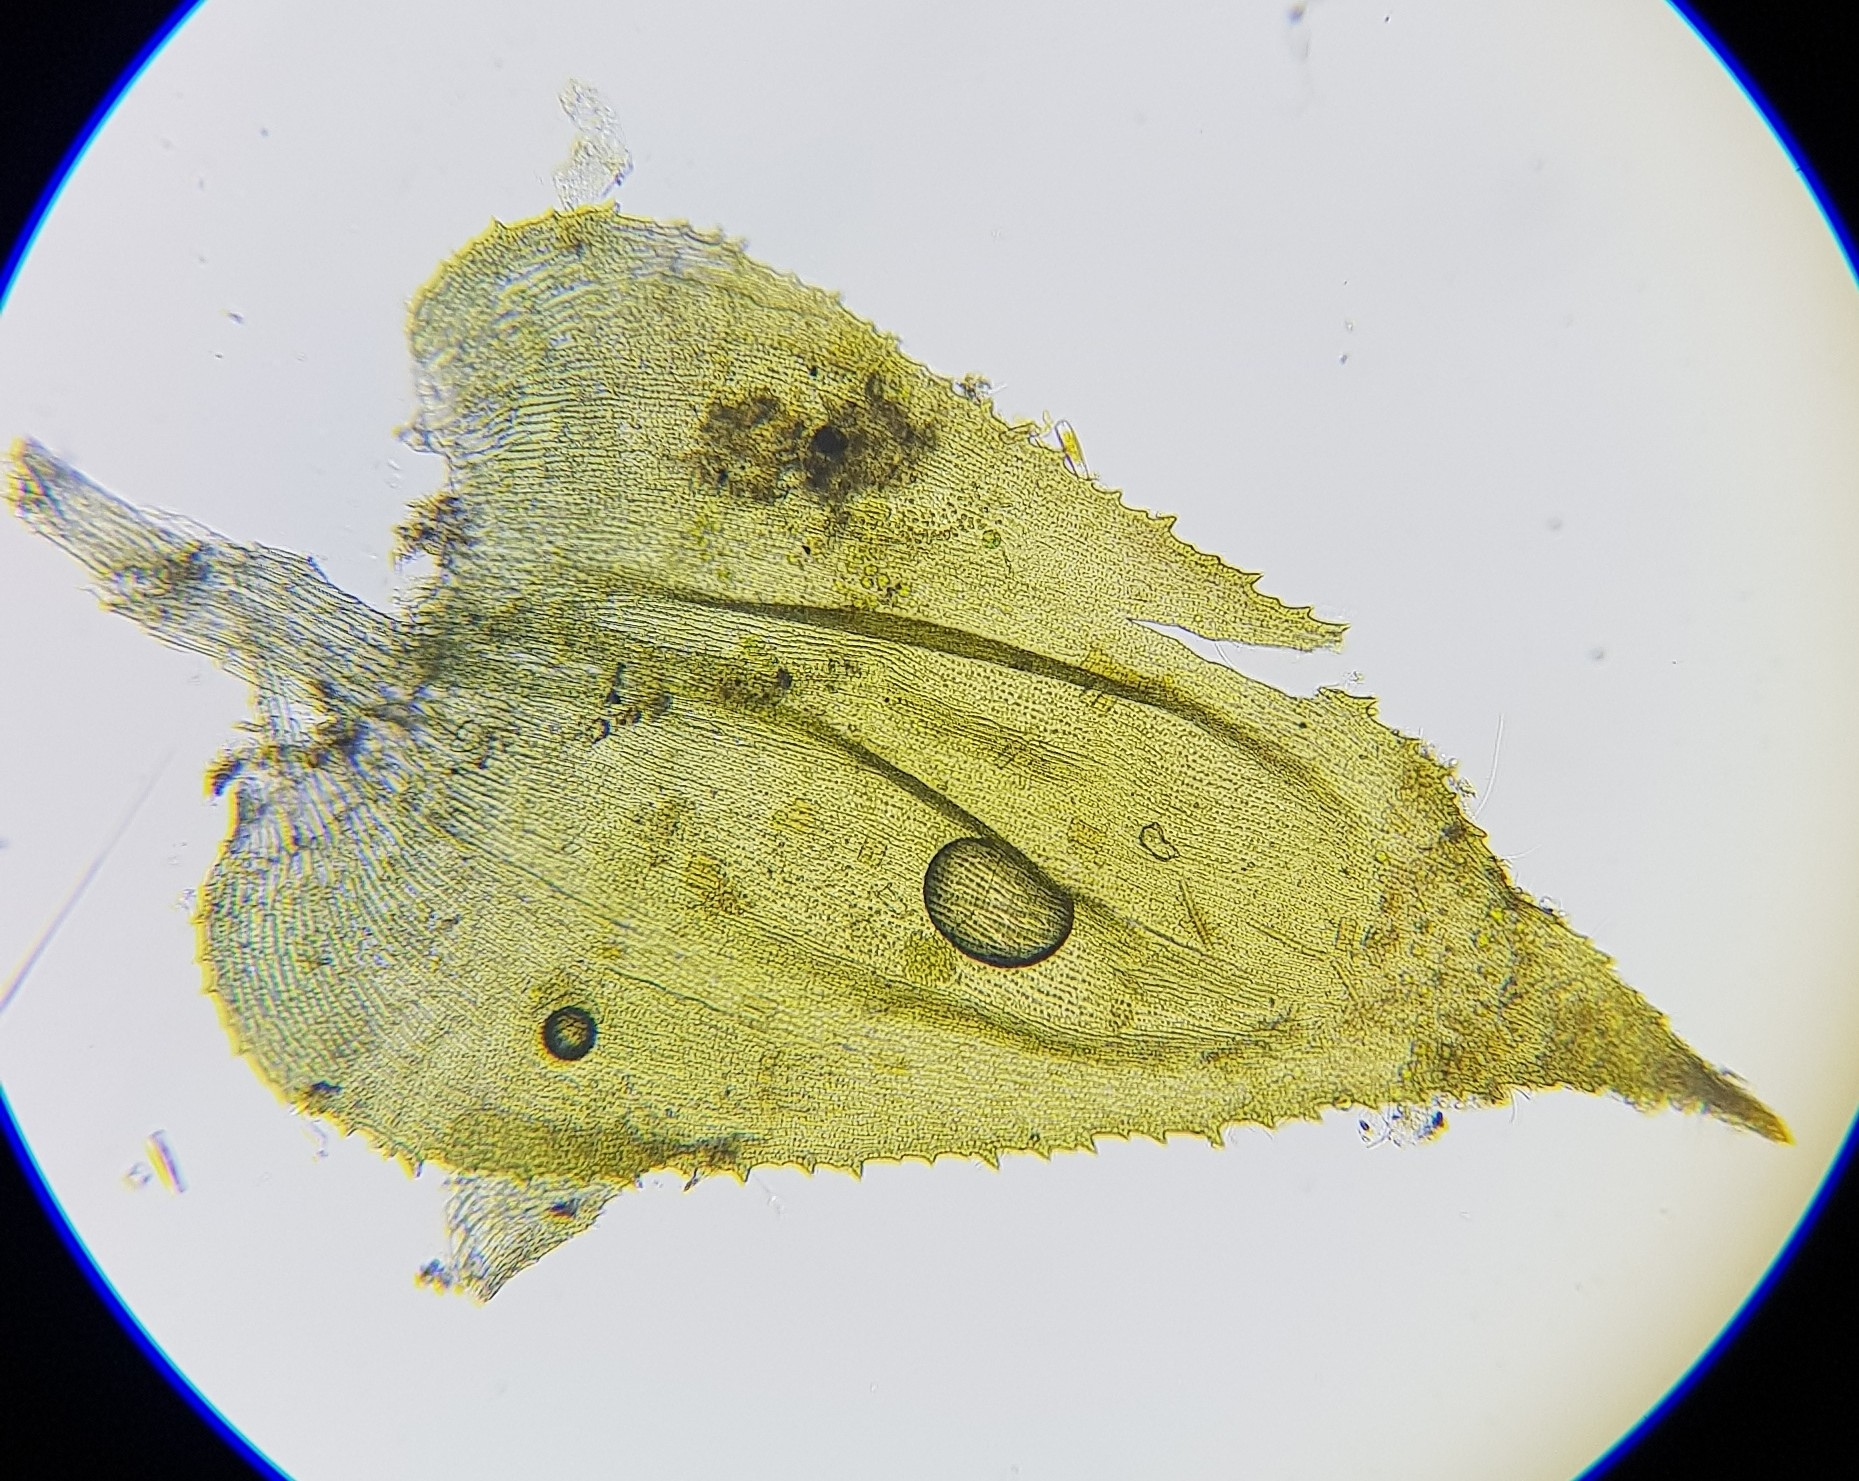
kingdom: Plantae
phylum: Bryophyta
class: Bryopsida
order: Hypnales
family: Myuriaceae
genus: Hyocomium
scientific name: Hyocomium armoricum
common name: Flagellate feather-moss
